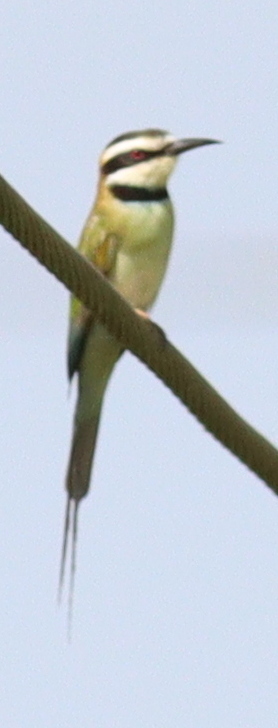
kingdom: Animalia
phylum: Chordata
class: Aves
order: Coraciiformes
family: Meropidae
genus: Merops
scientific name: Merops albicollis
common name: White-throated bee-eater
